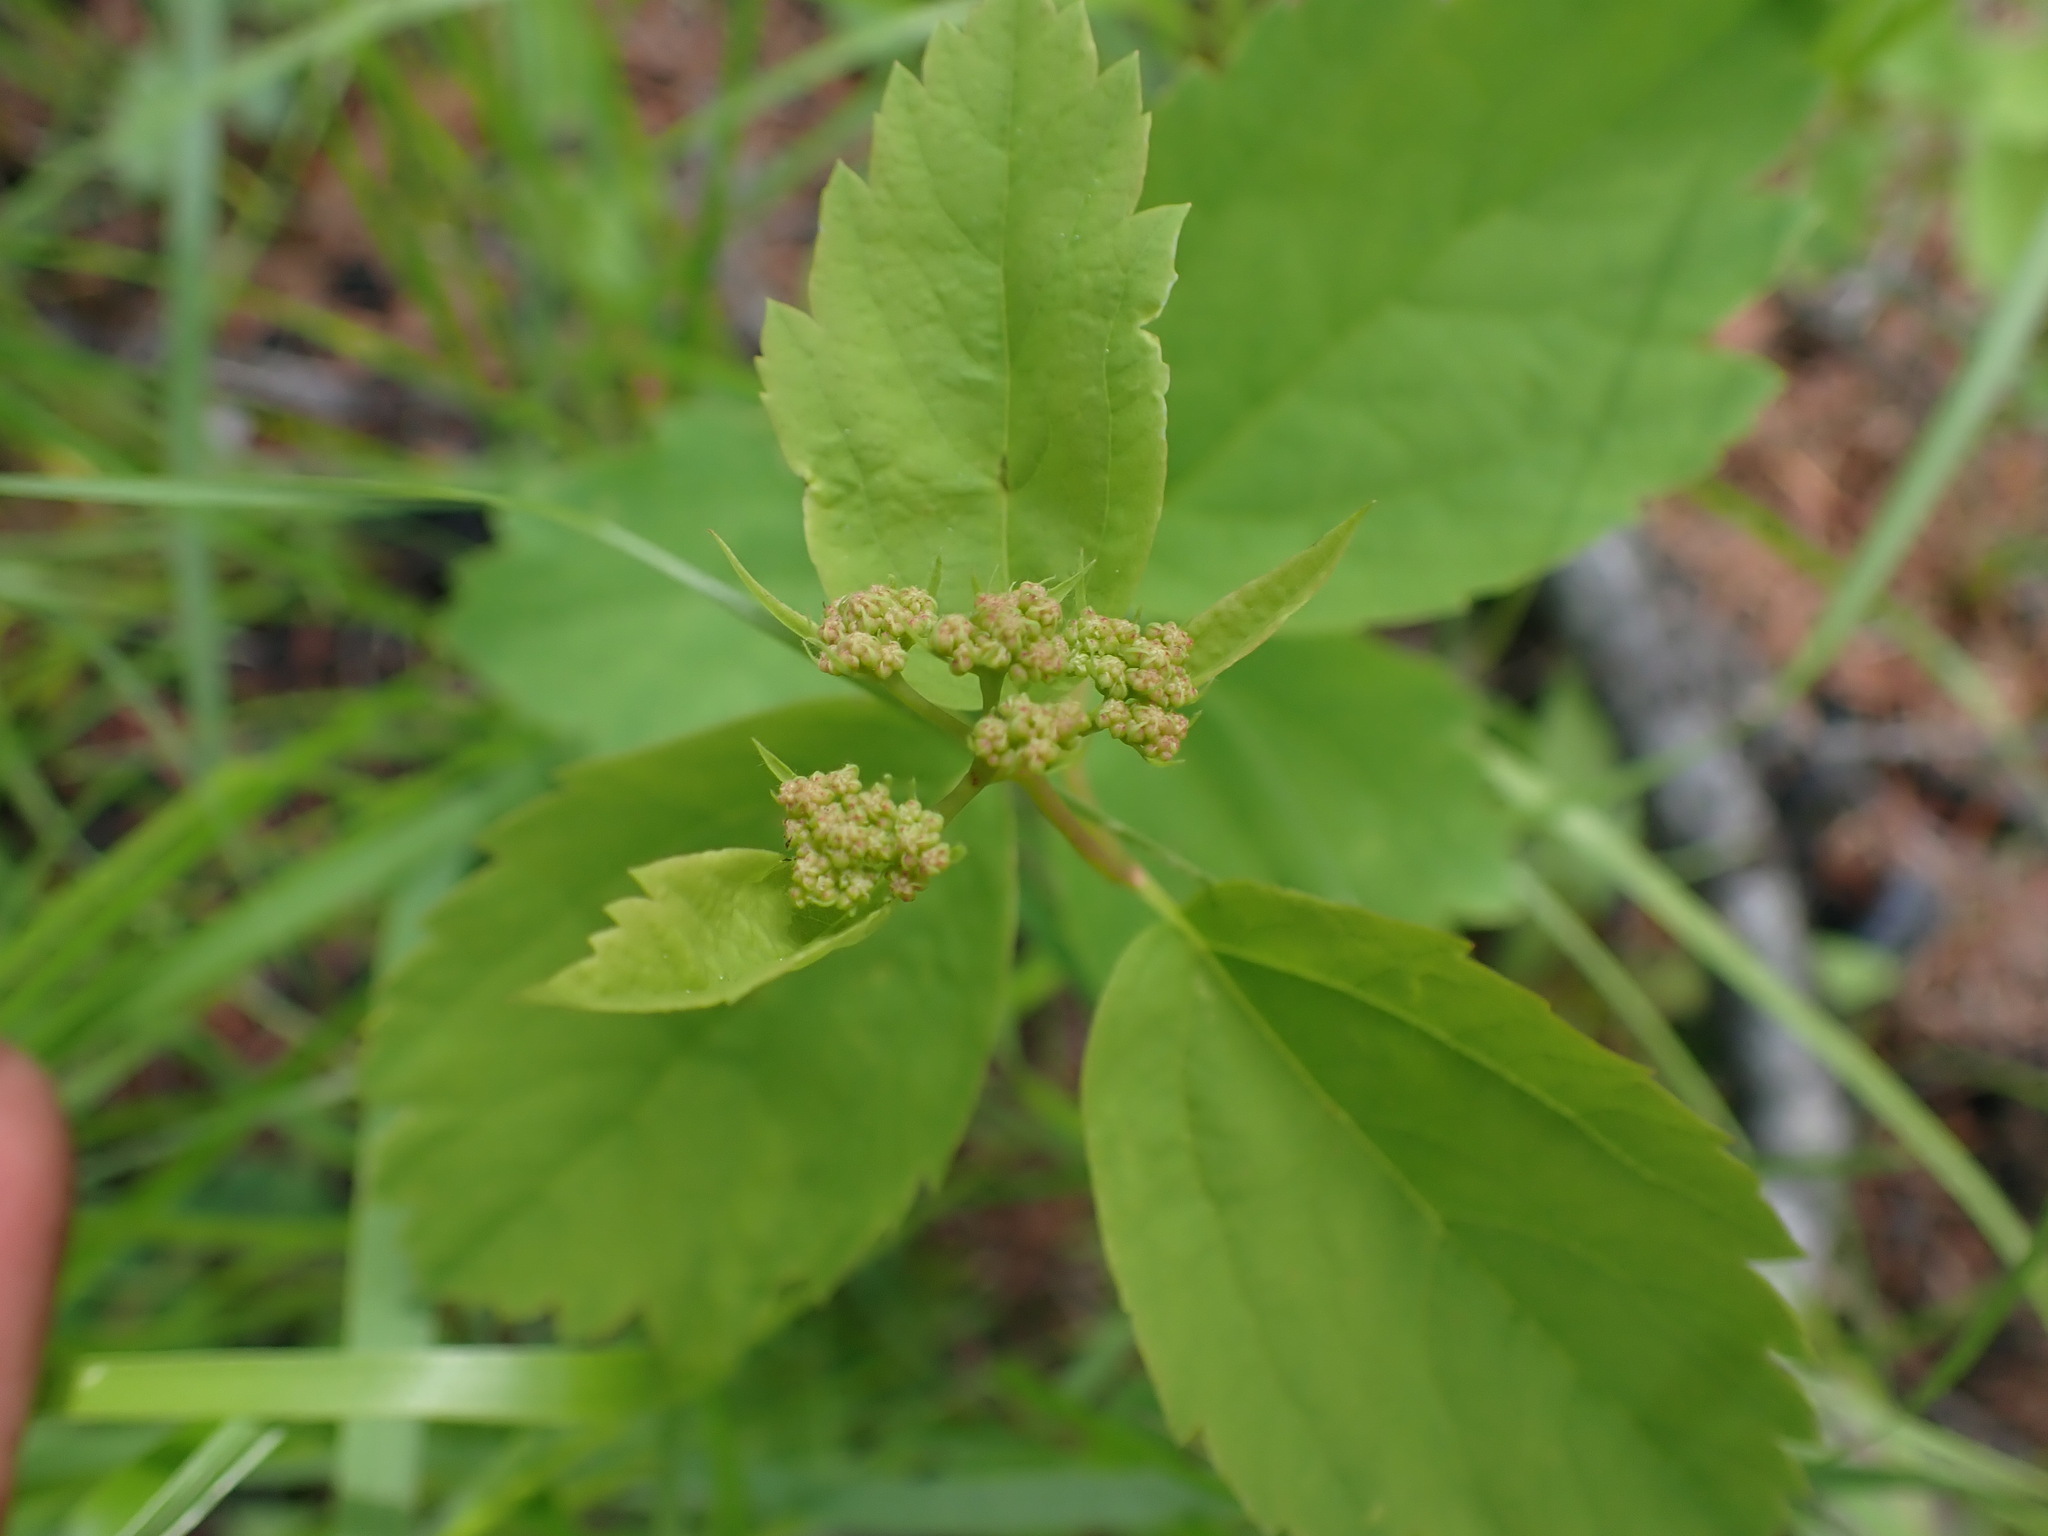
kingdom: Plantae
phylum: Tracheophyta
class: Magnoliopsida
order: Rosales
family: Rosaceae
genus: Spiraea
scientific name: Spiraea lucida
